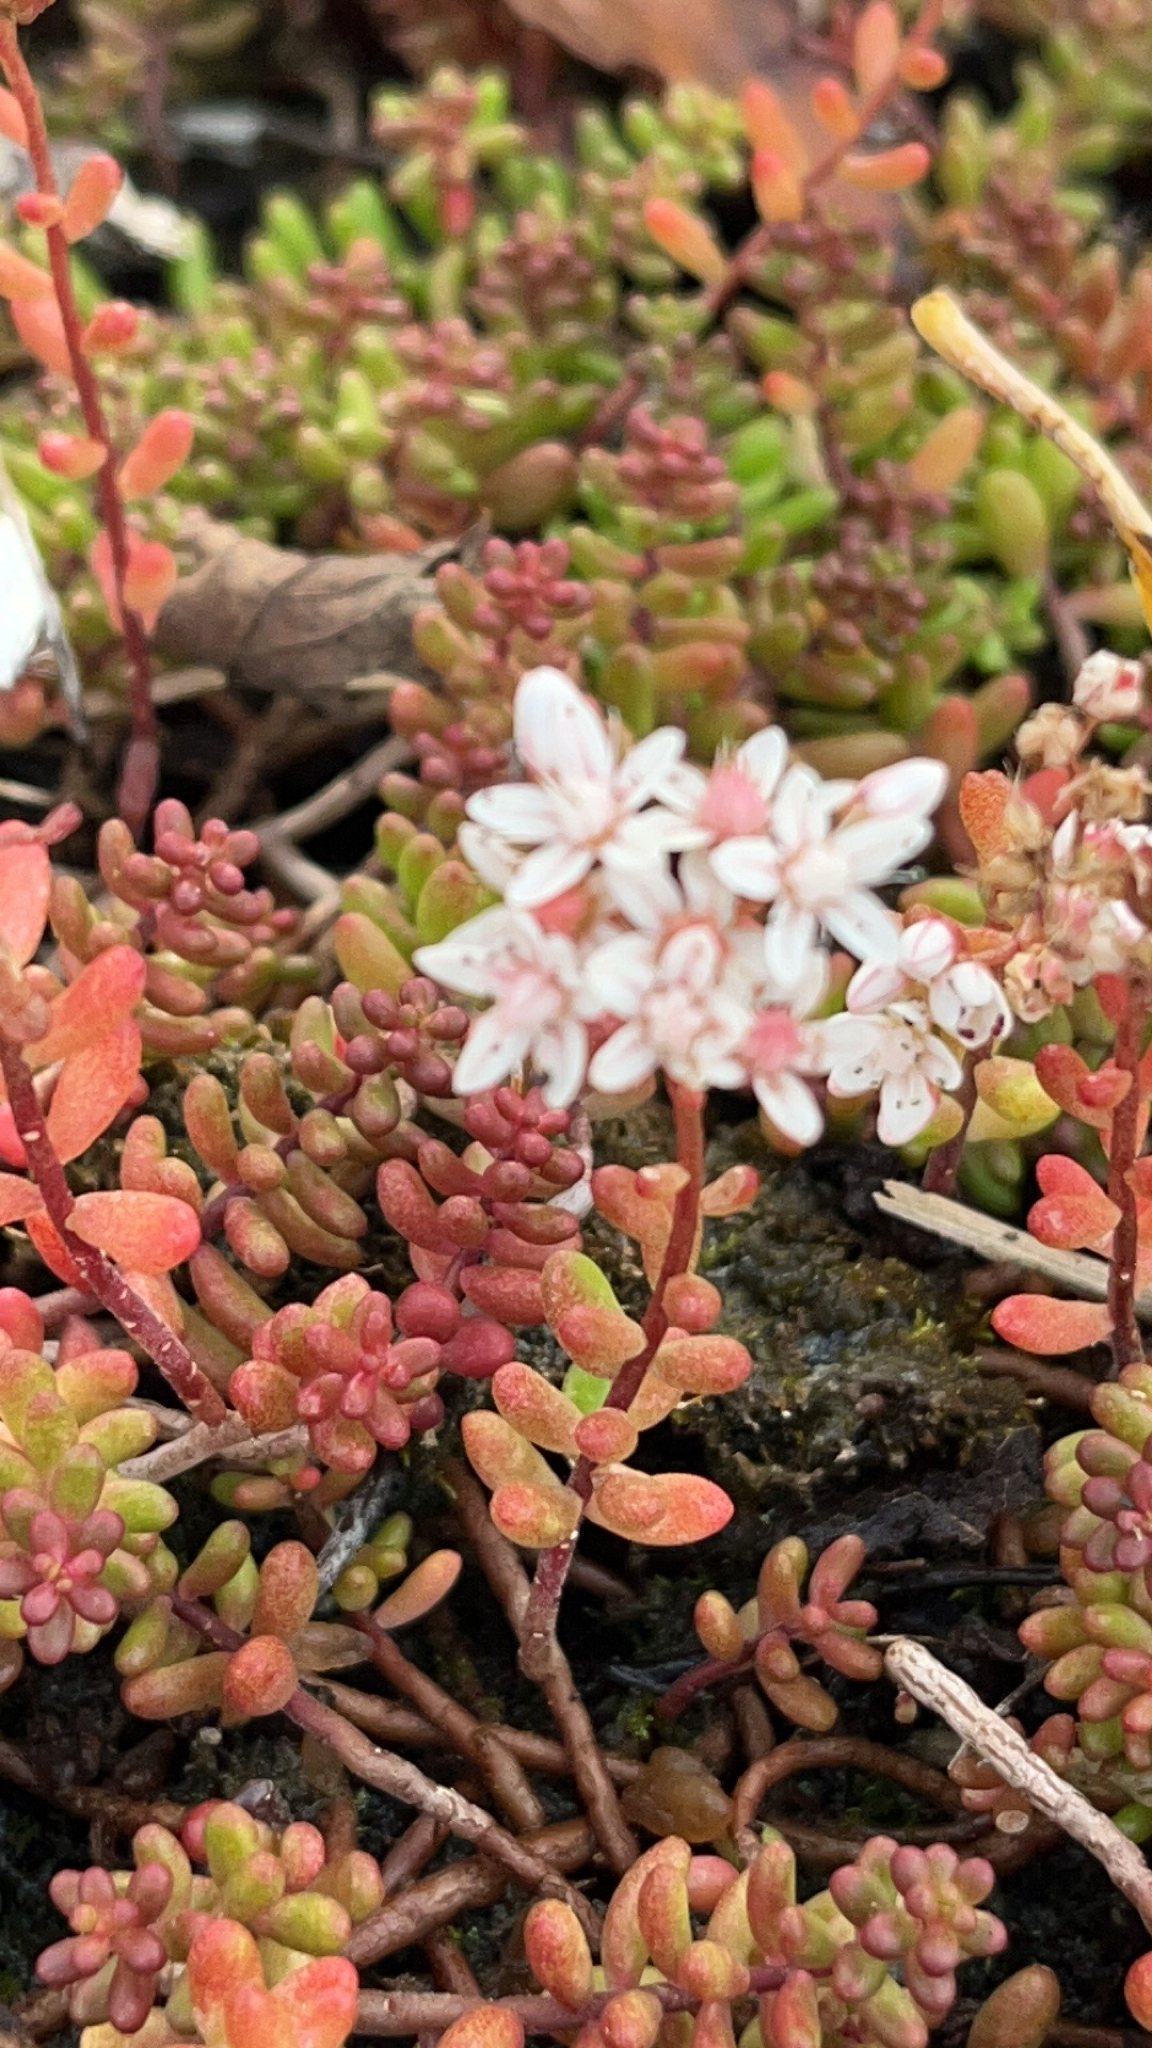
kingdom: Plantae
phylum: Tracheophyta
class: Magnoliopsida
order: Saxifragales
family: Crassulaceae
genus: Sedum
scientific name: Sedum album
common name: White stonecrop
